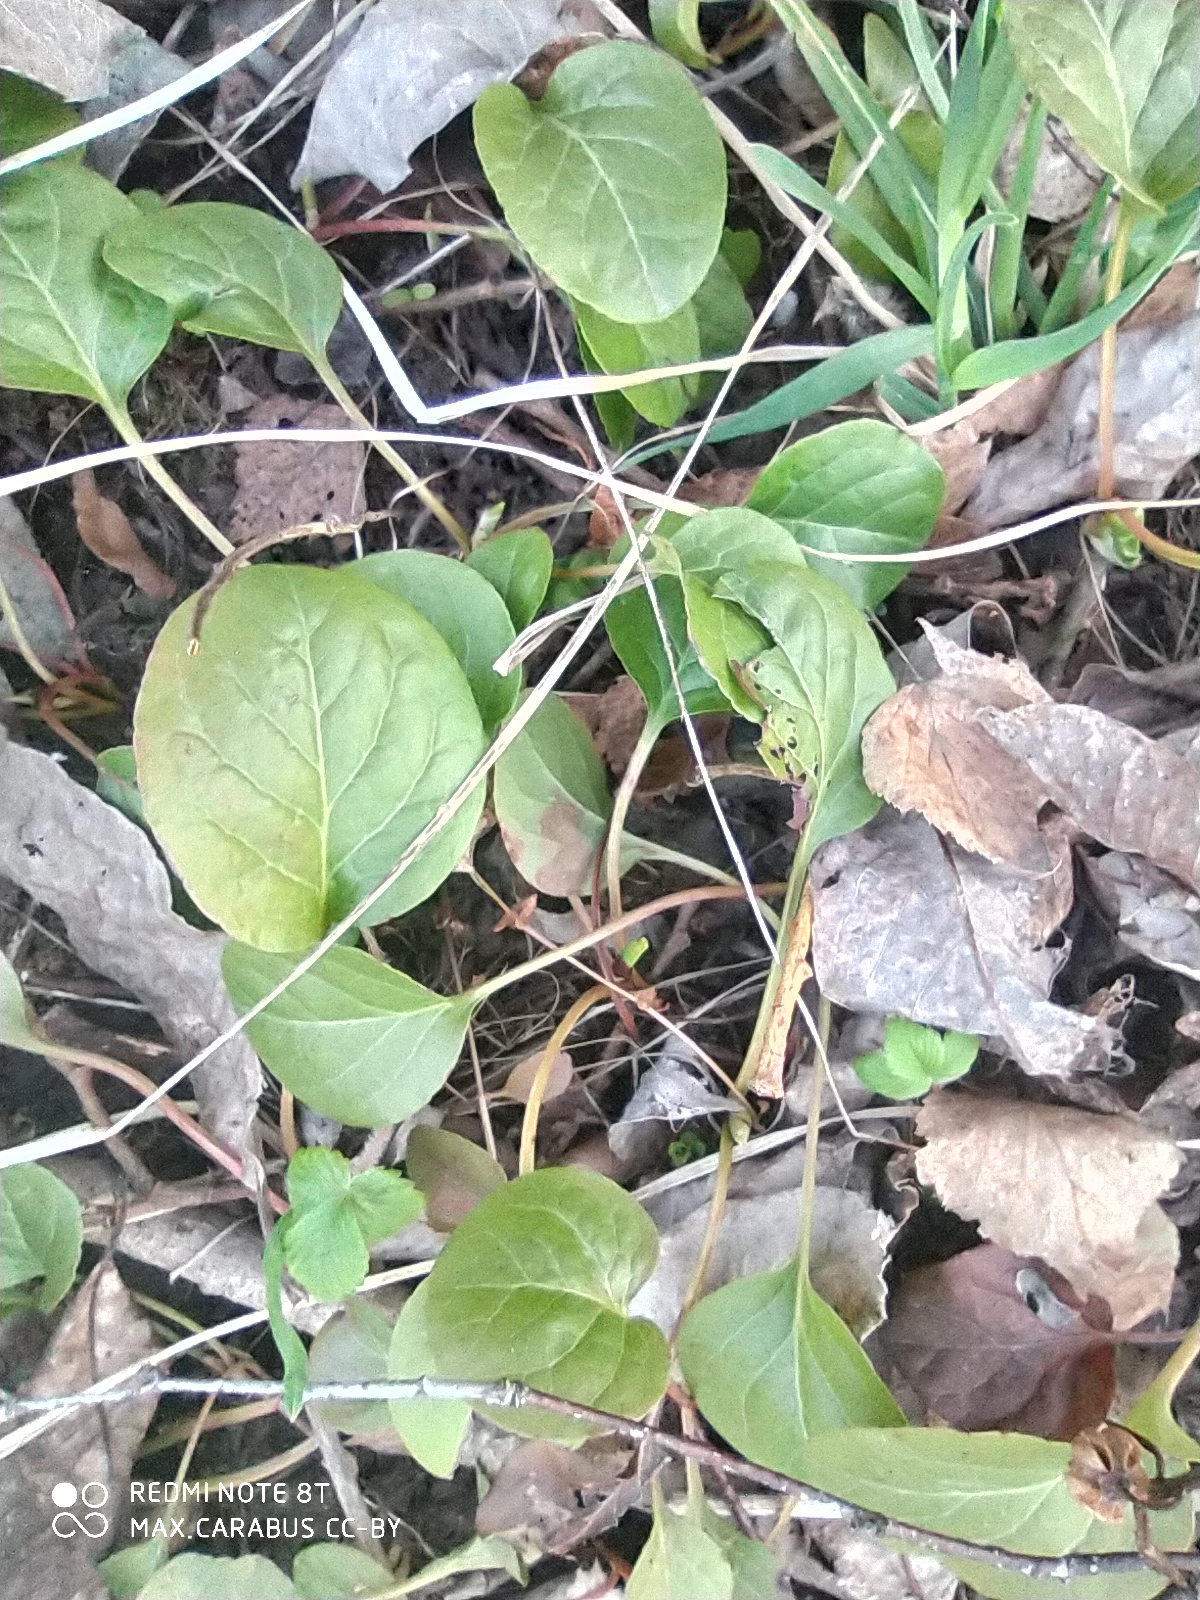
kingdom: Plantae
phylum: Tracheophyta
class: Magnoliopsida
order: Ericales
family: Ericaceae
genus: Pyrola
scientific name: Pyrola rotundifolia
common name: Round-leaved wintergreen
